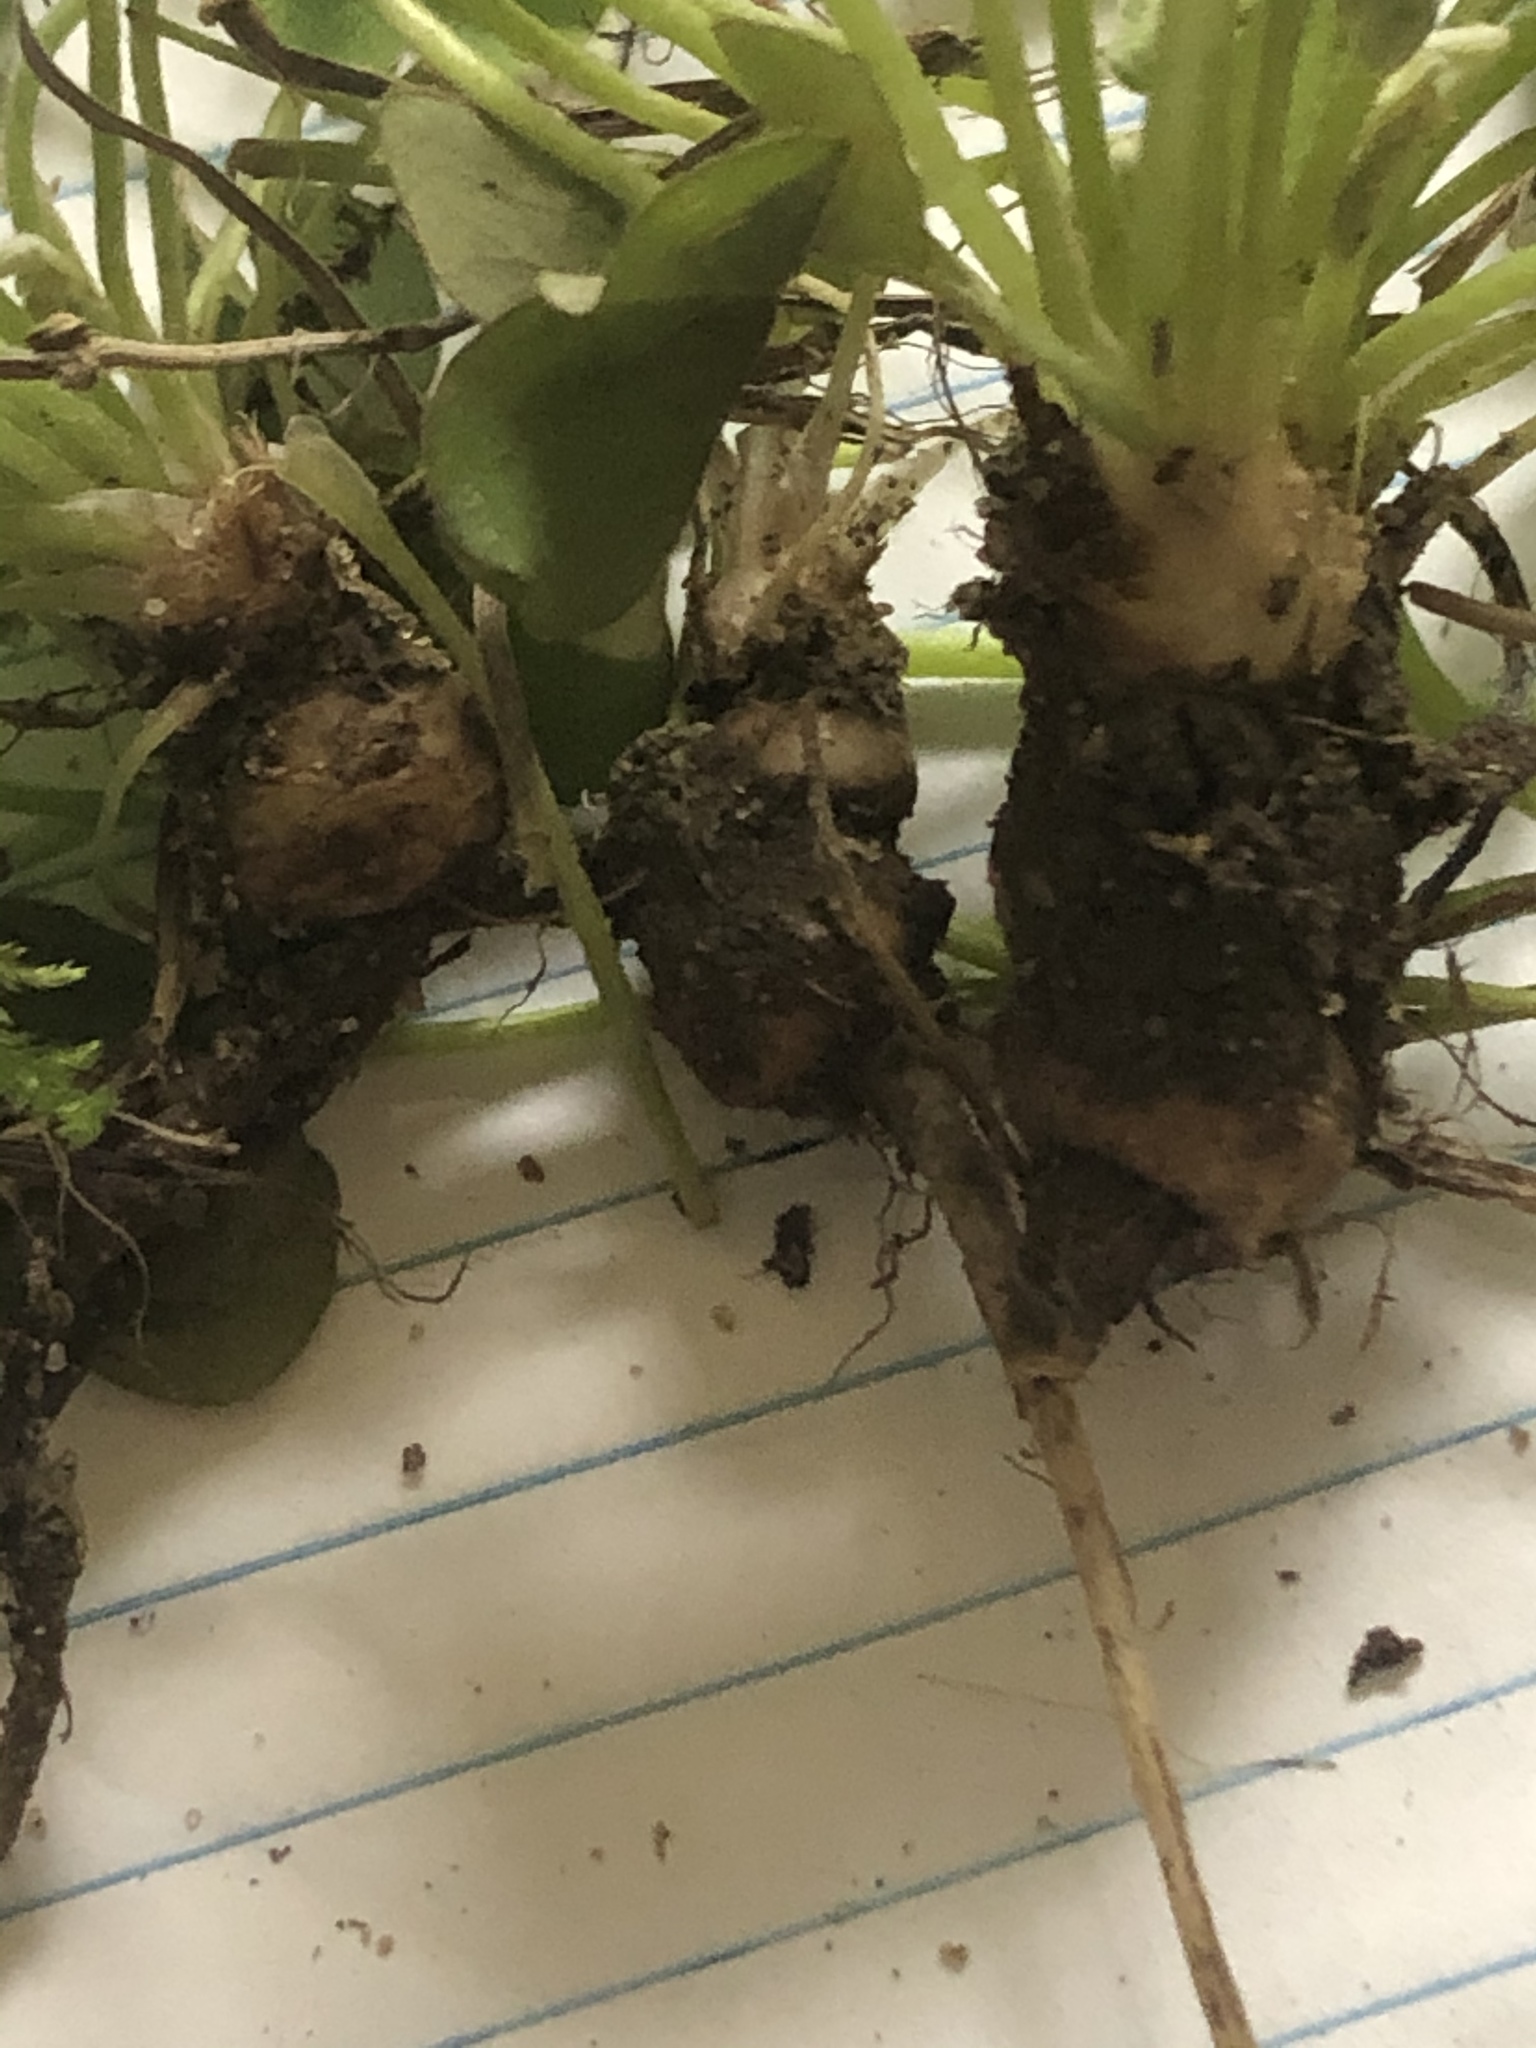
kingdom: Plantae
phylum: Tracheophyta
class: Magnoliopsida
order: Oxalidales
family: Oxalidaceae
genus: Oxalis
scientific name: Oxalis articulata
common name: Pink-sorrel
